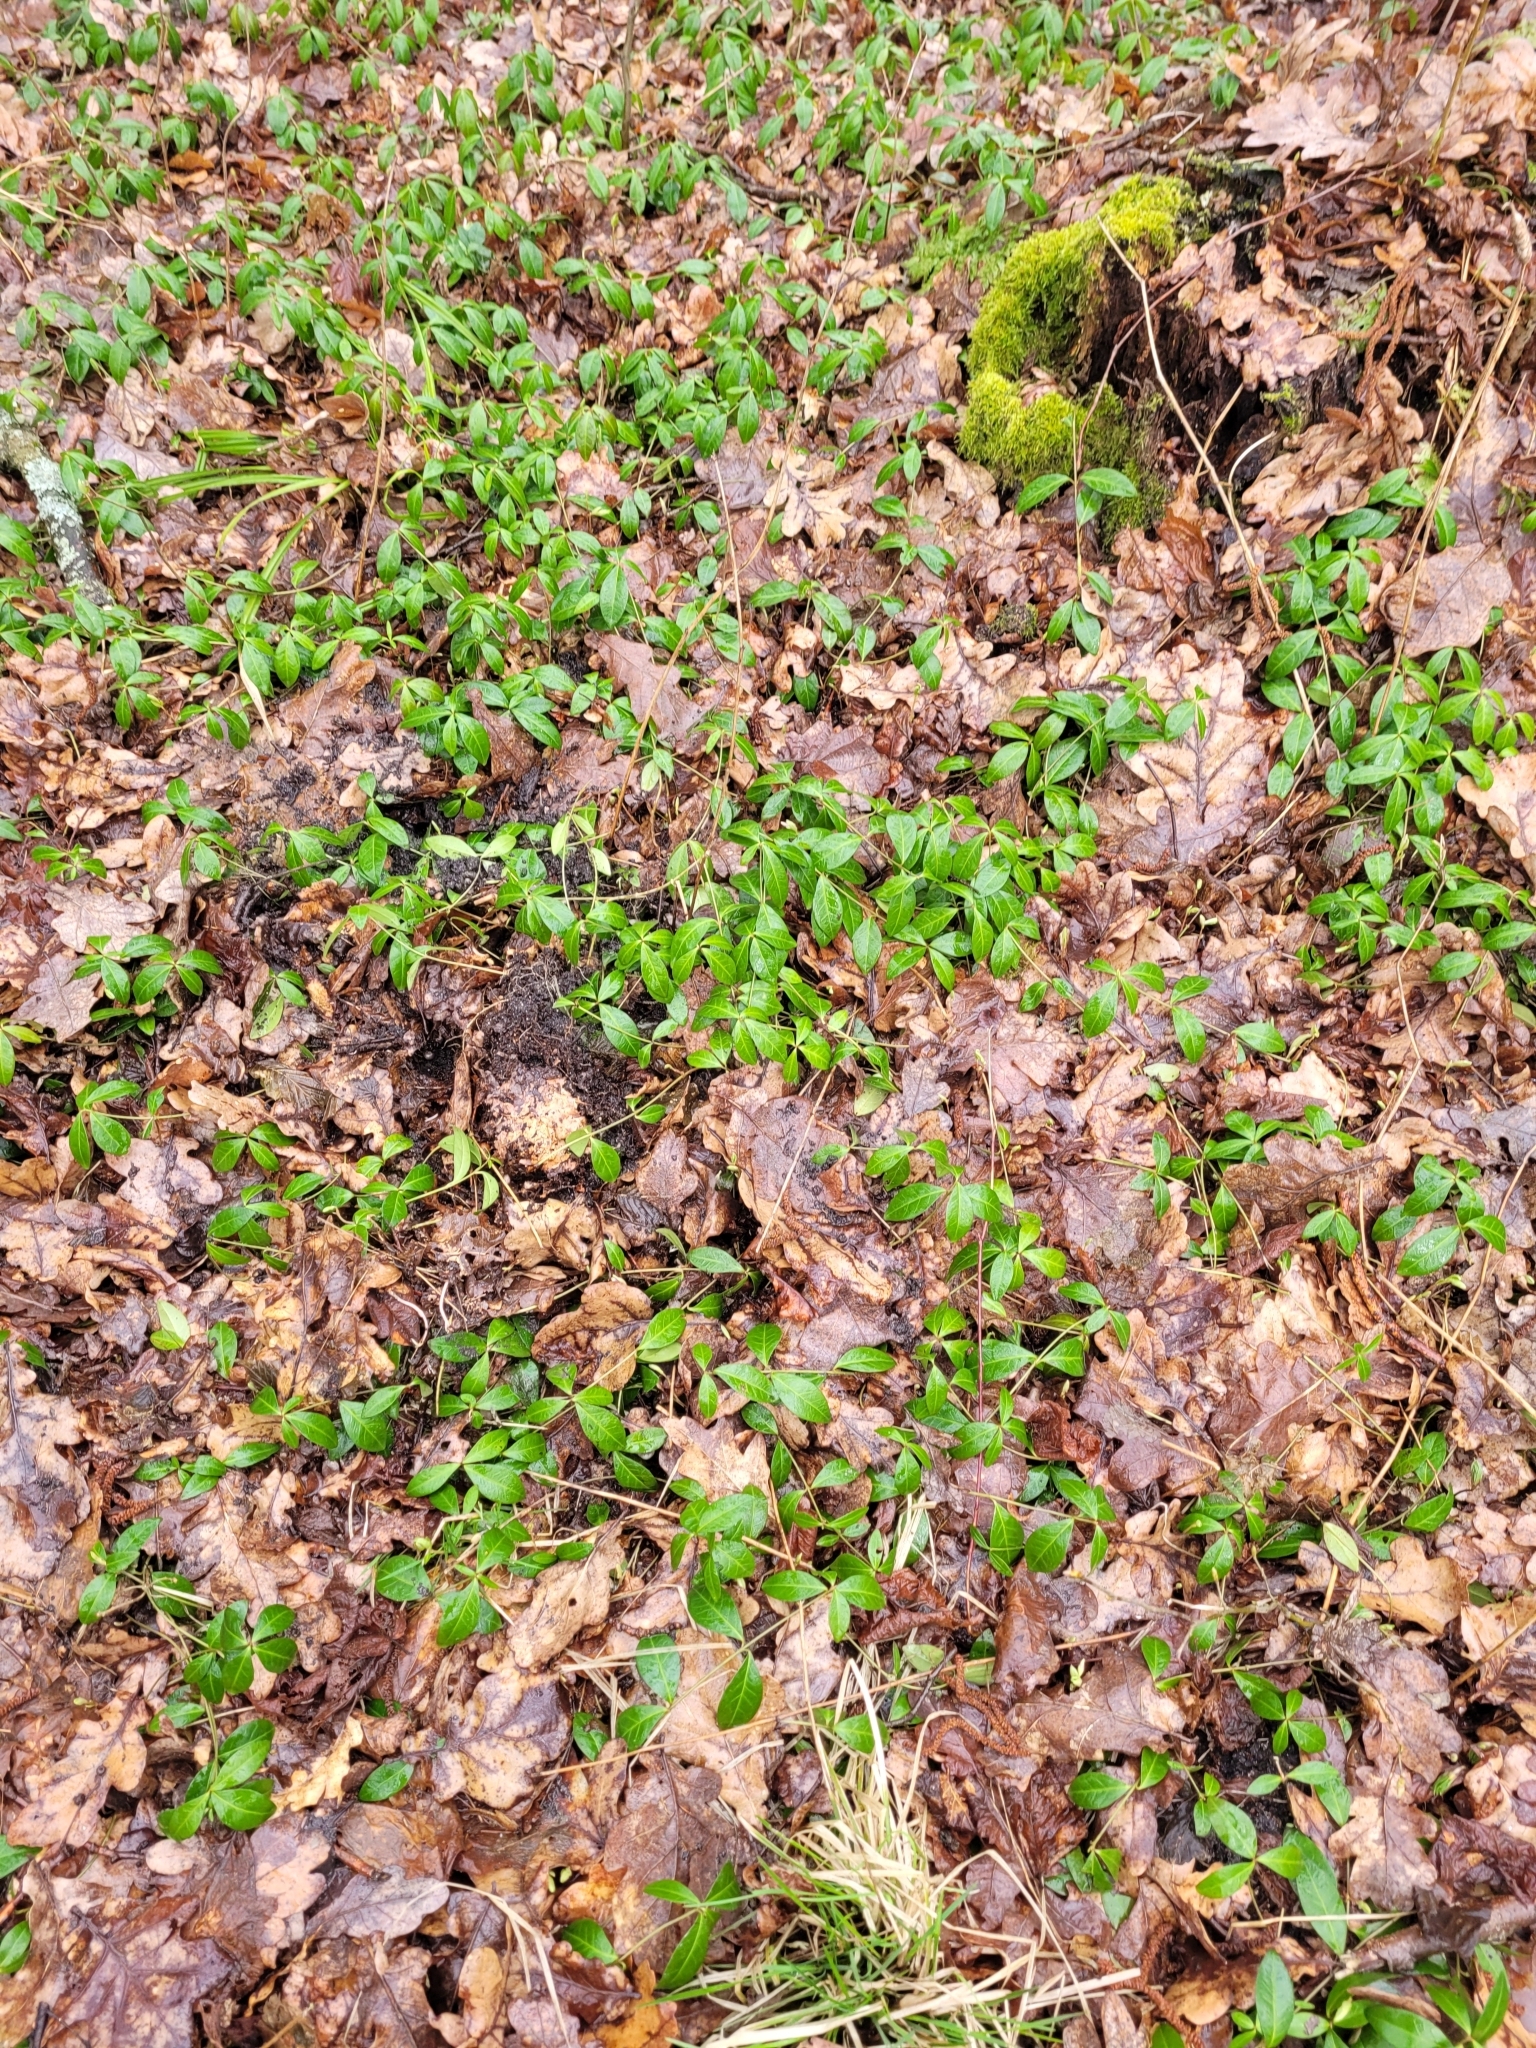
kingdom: Plantae
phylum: Tracheophyta
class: Magnoliopsida
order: Gentianales
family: Apocynaceae
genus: Vinca
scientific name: Vinca minor
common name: Lesser periwinkle
